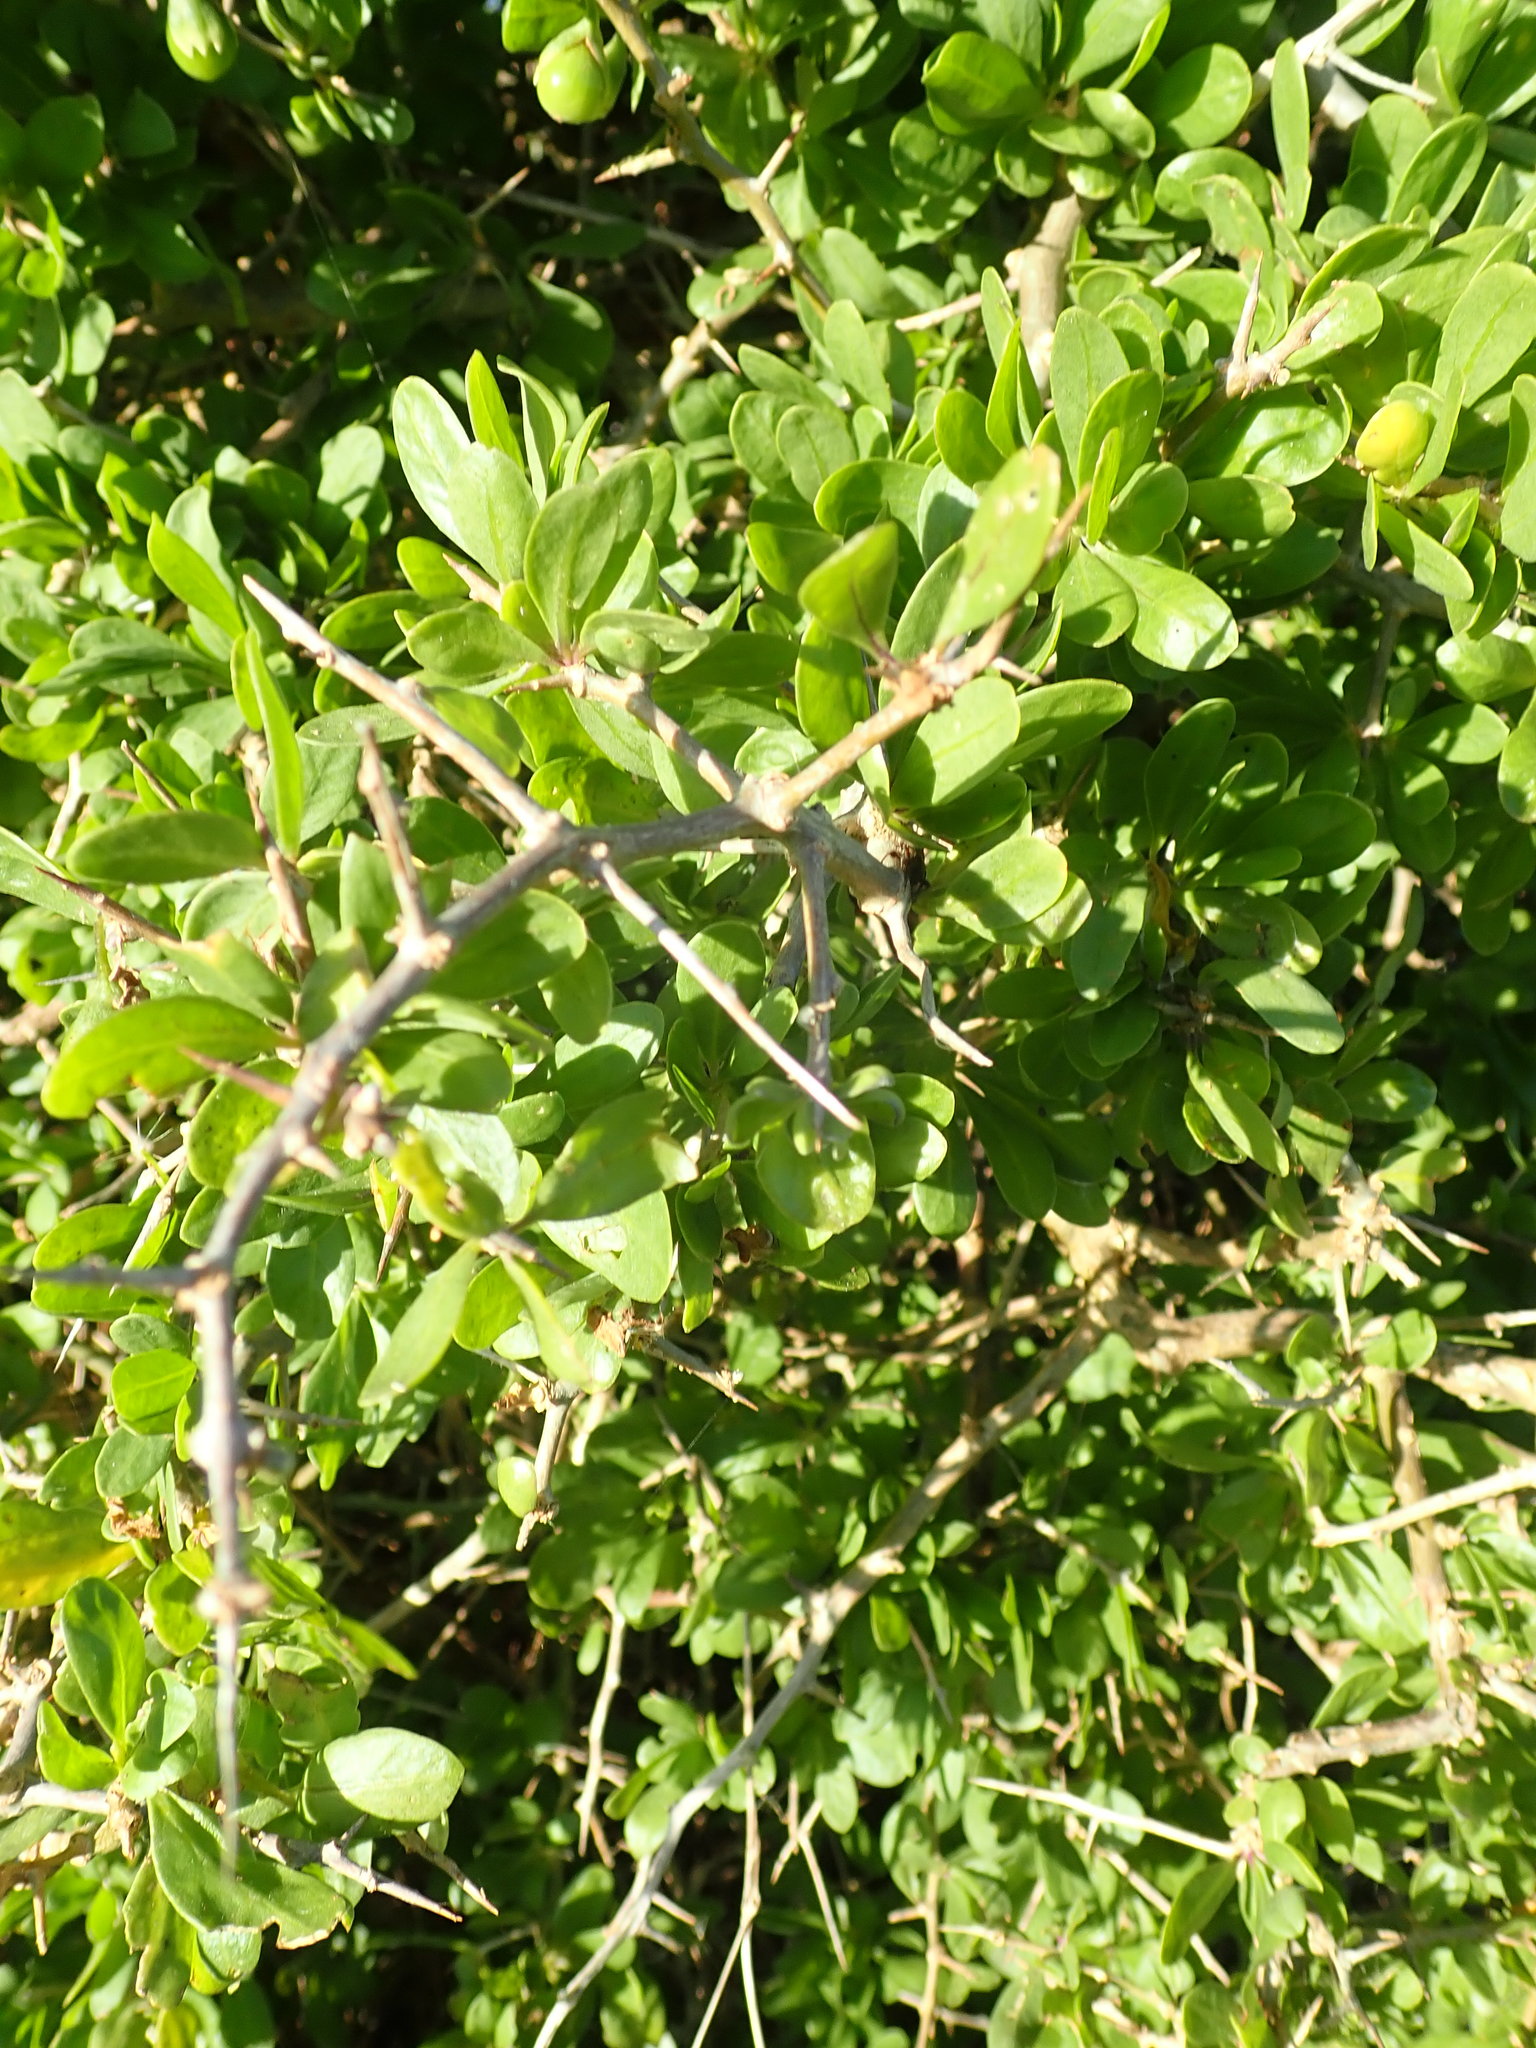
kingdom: Plantae
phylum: Tracheophyta
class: Magnoliopsida
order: Solanales
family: Solanaceae
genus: Lycium
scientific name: Lycium ferocissimum
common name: African boxthorn
